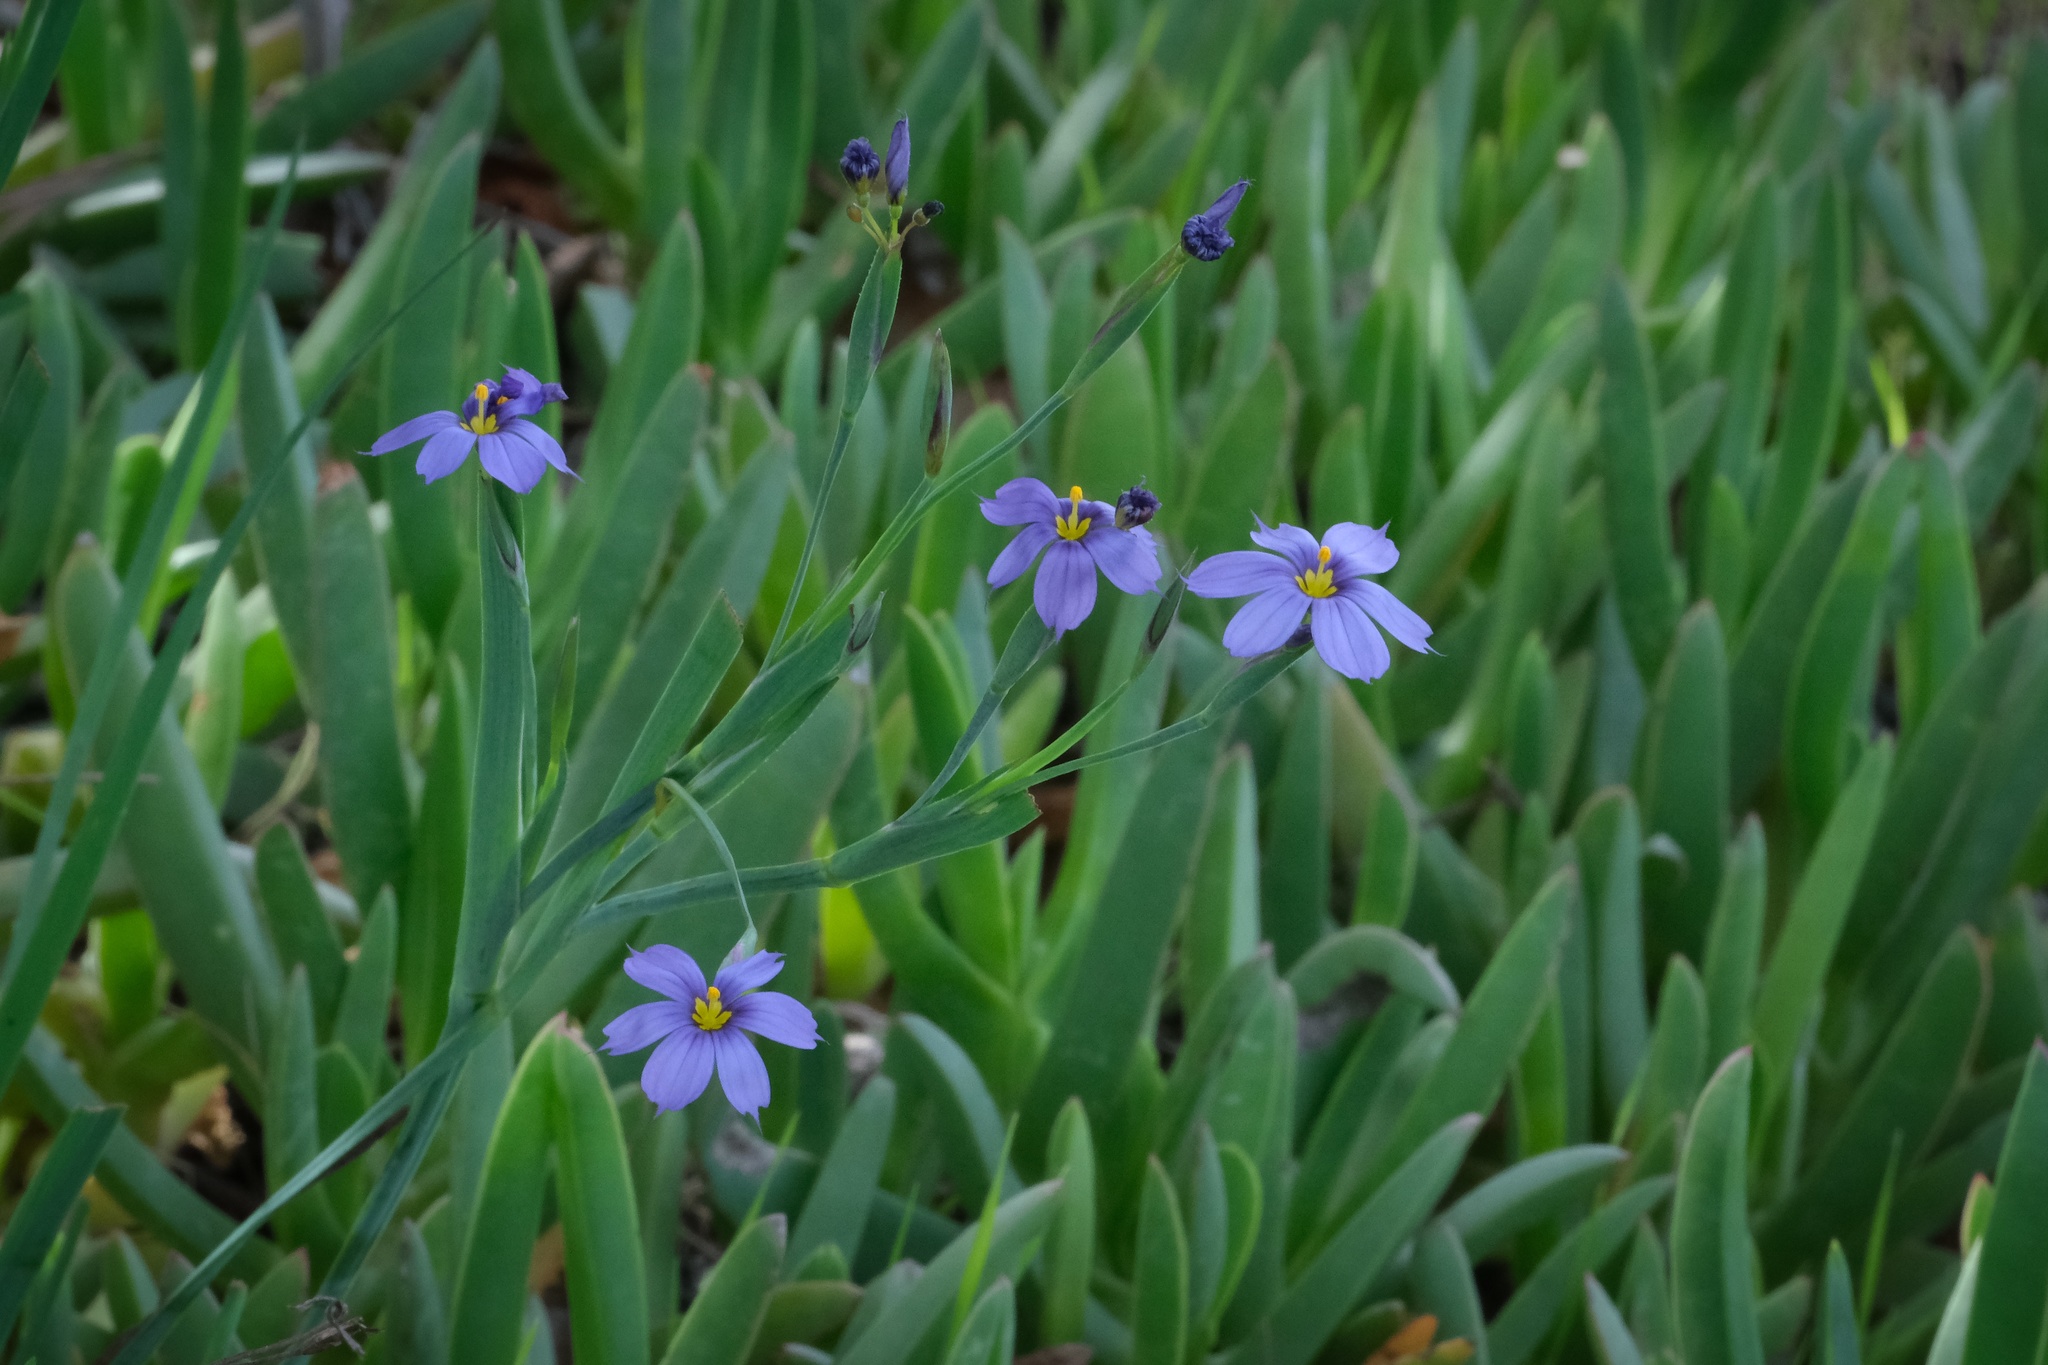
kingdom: Plantae
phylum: Tracheophyta
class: Liliopsida
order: Asparagales
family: Iridaceae
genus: Sisyrinchium
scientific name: Sisyrinchium bellum
